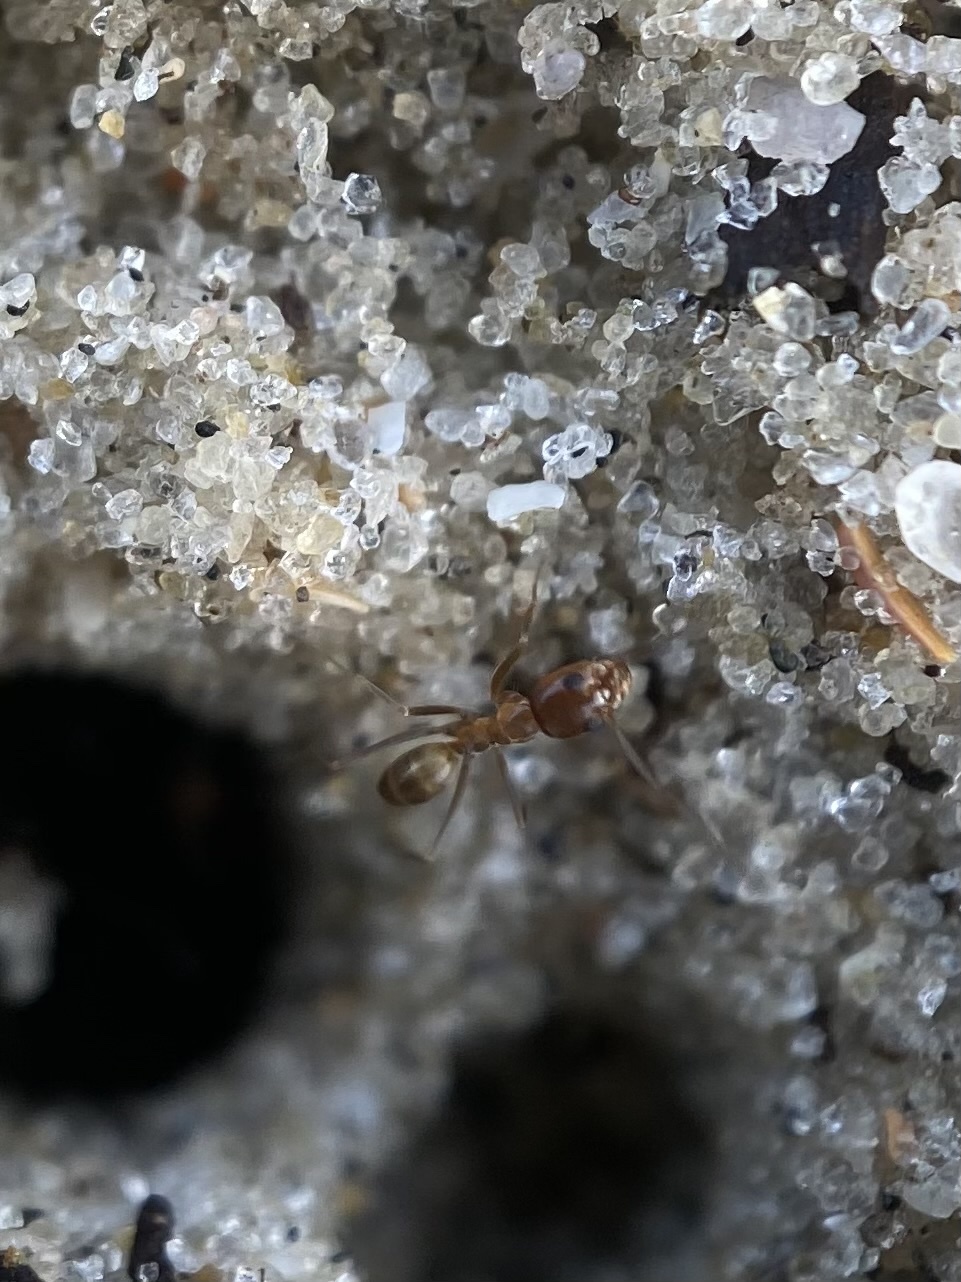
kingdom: Animalia
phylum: Arthropoda
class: Insecta
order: Hymenoptera
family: Formicidae
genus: Dorymyrmex
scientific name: Dorymyrmex bureni
